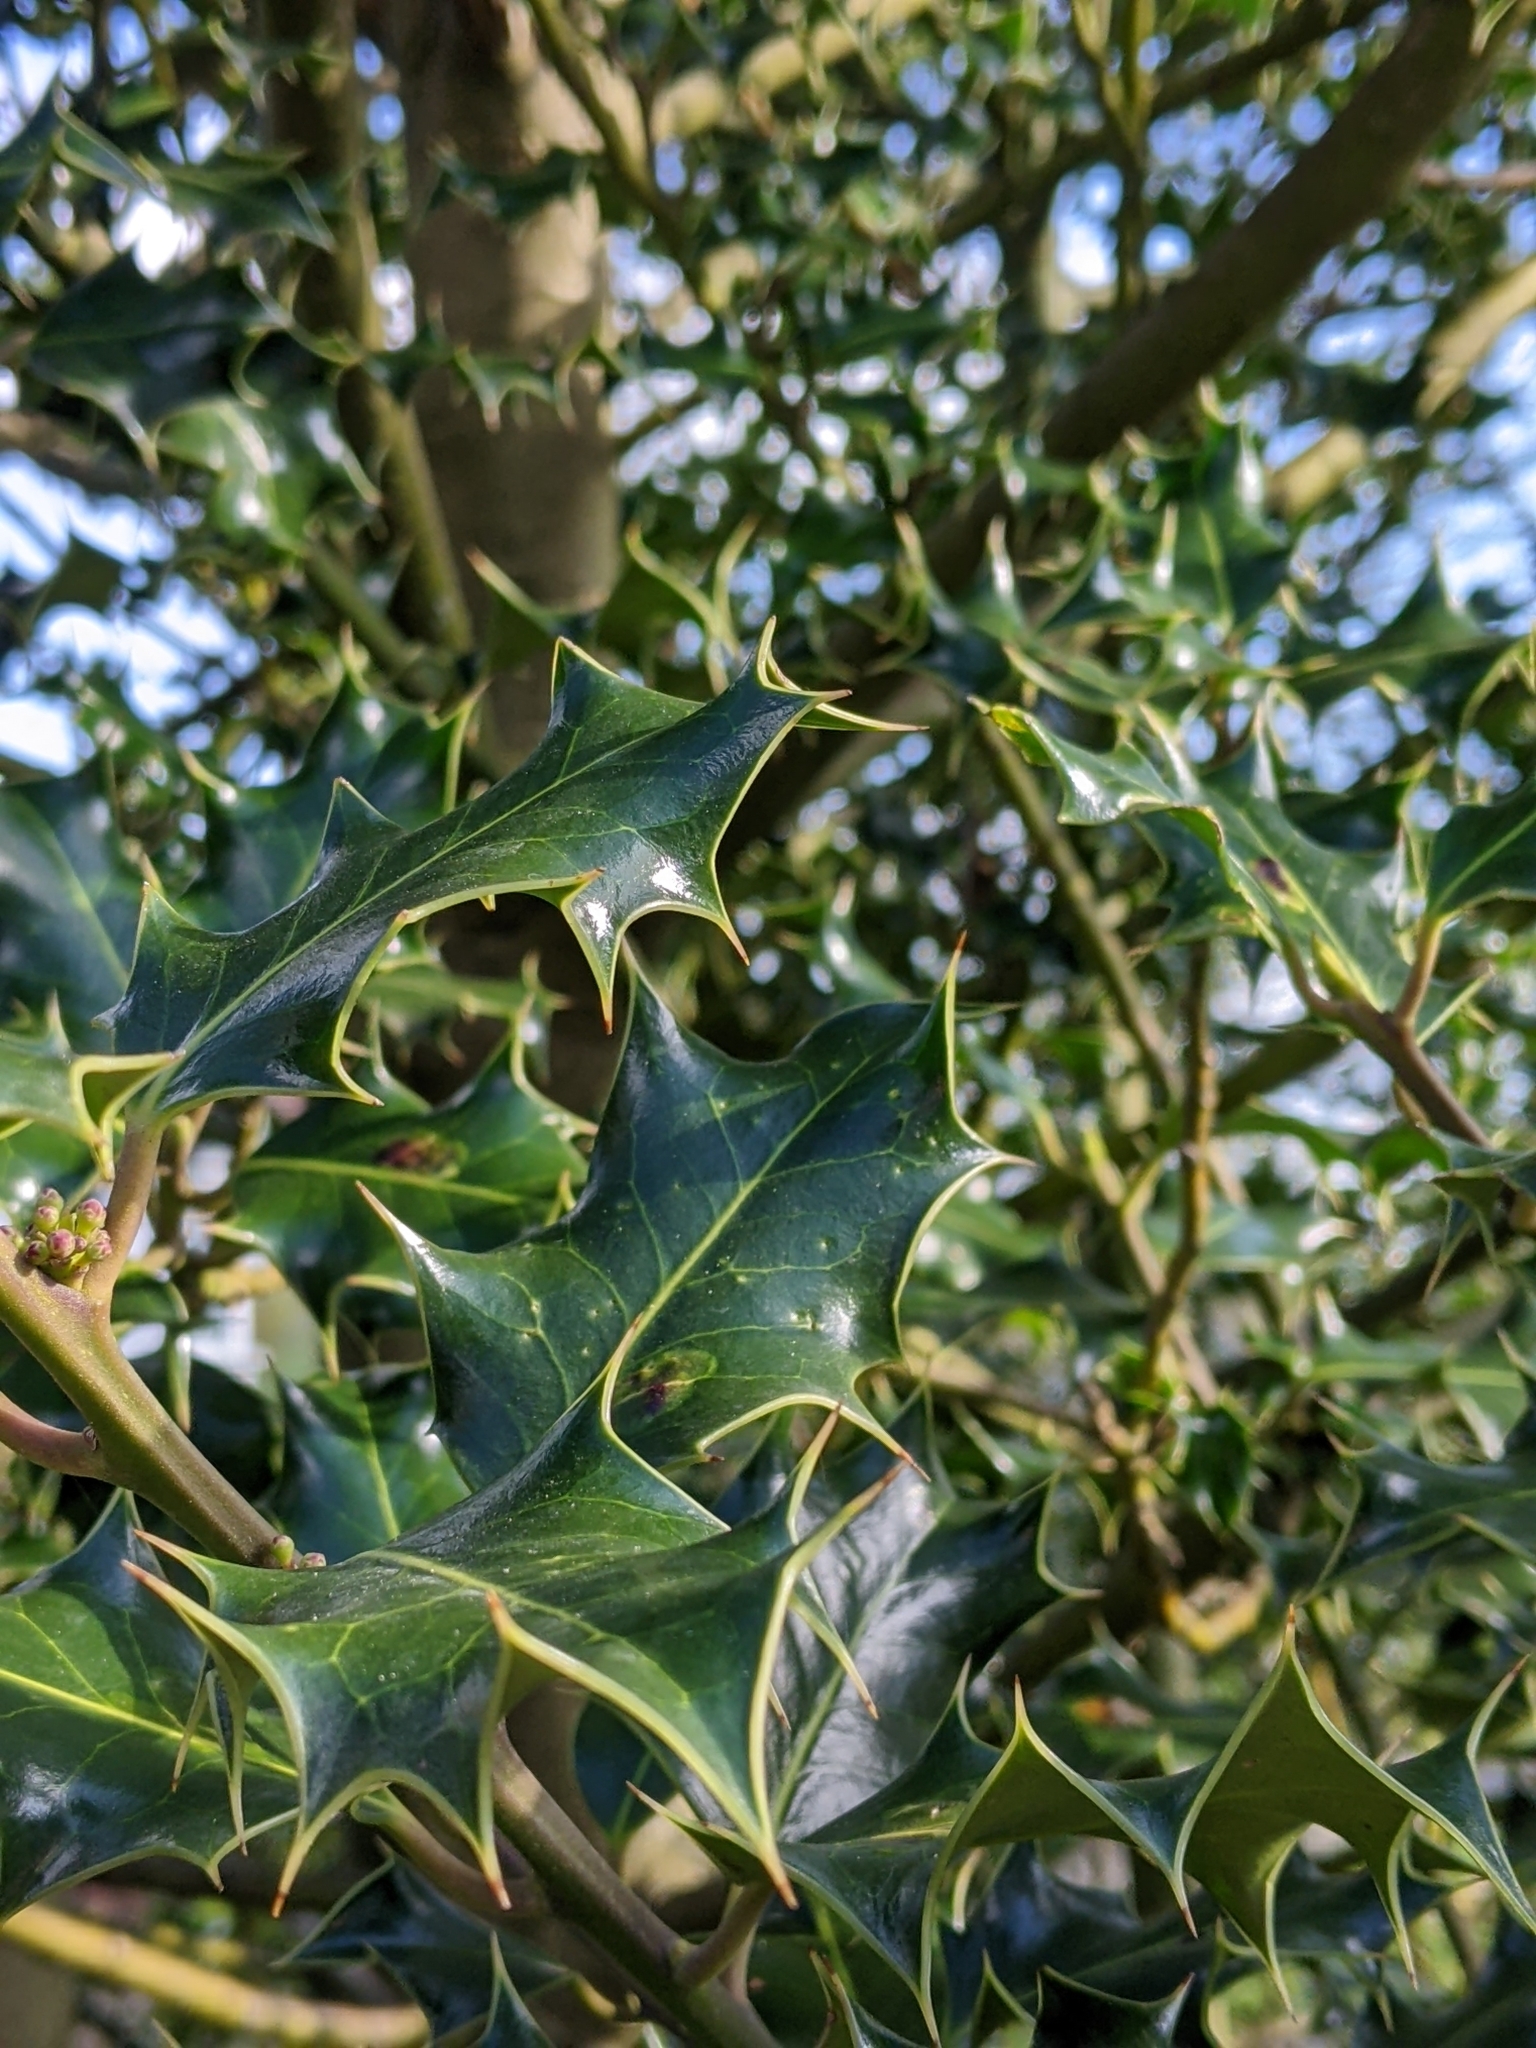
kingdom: Plantae
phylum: Tracheophyta
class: Magnoliopsida
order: Aquifoliales
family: Aquifoliaceae
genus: Ilex
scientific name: Ilex aquifolium
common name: English holly
